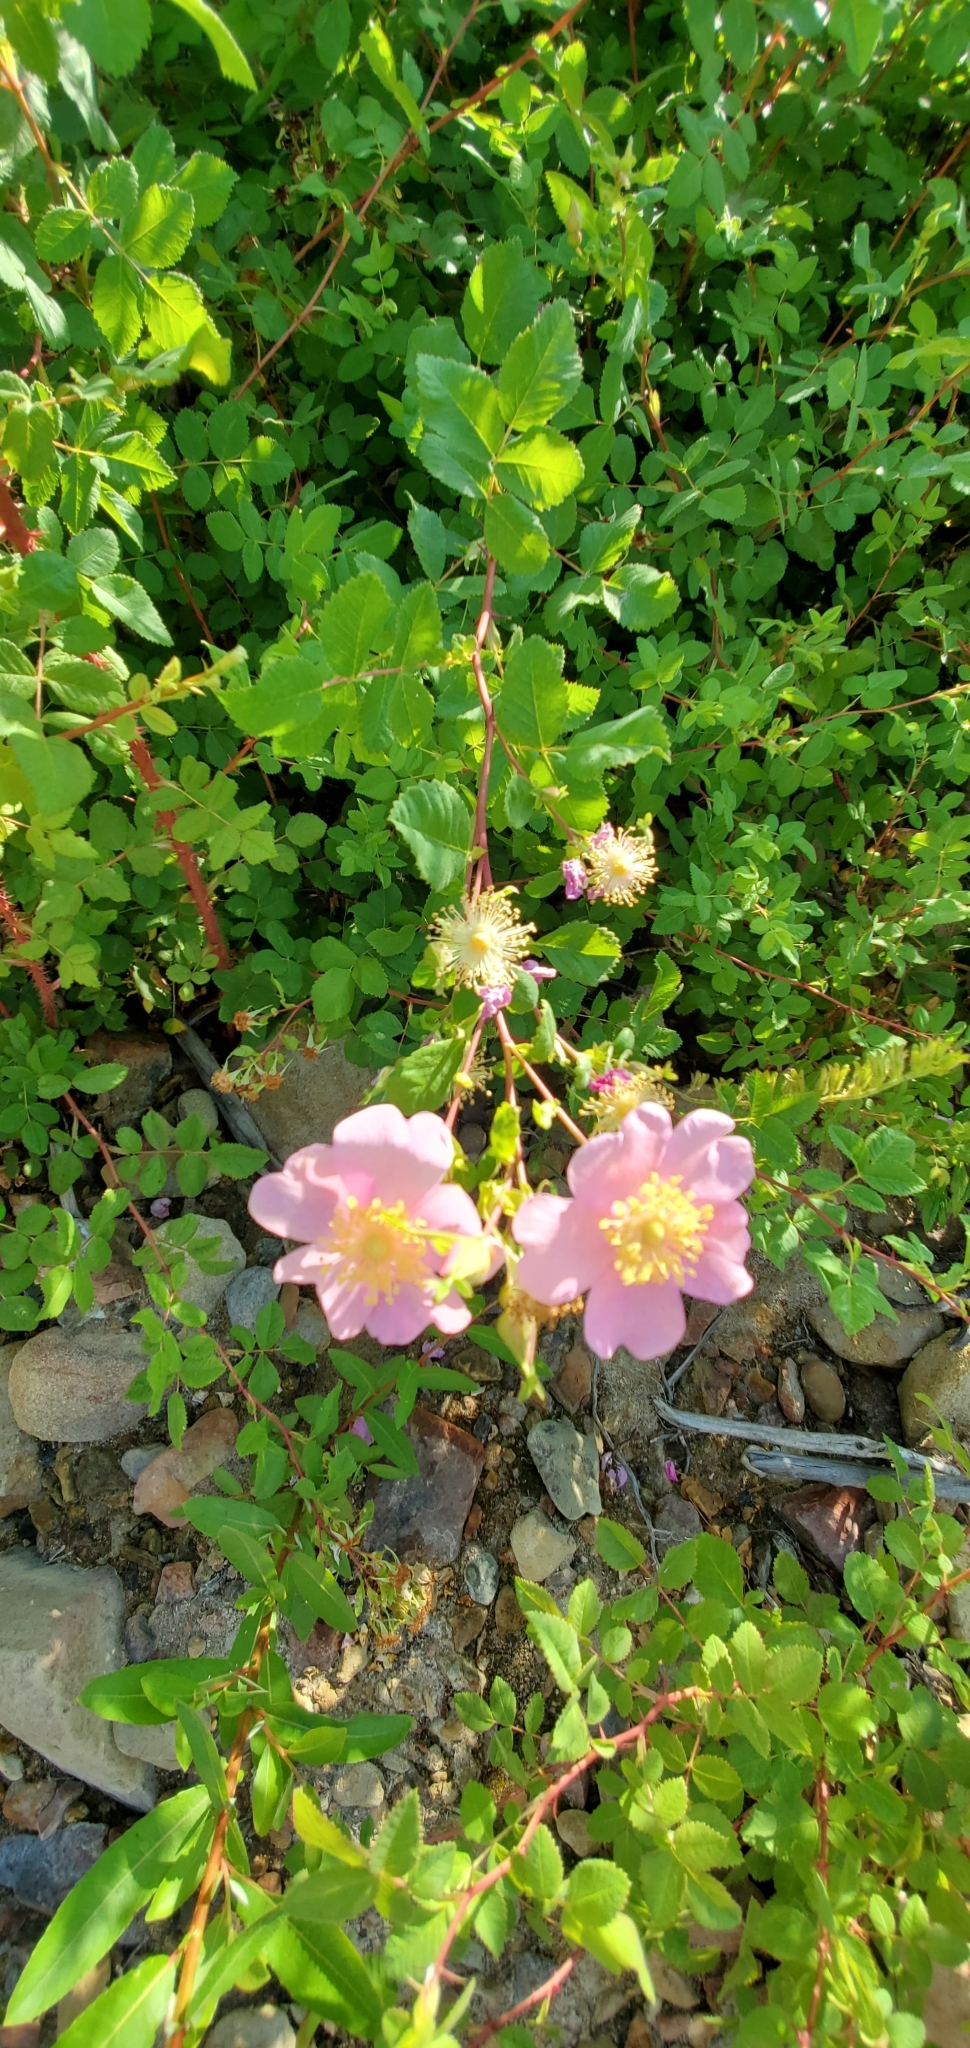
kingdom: Plantae
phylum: Tracheophyta
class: Magnoliopsida
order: Rosales
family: Rosaceae
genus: Rosa
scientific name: Rosa californica
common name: California rose
